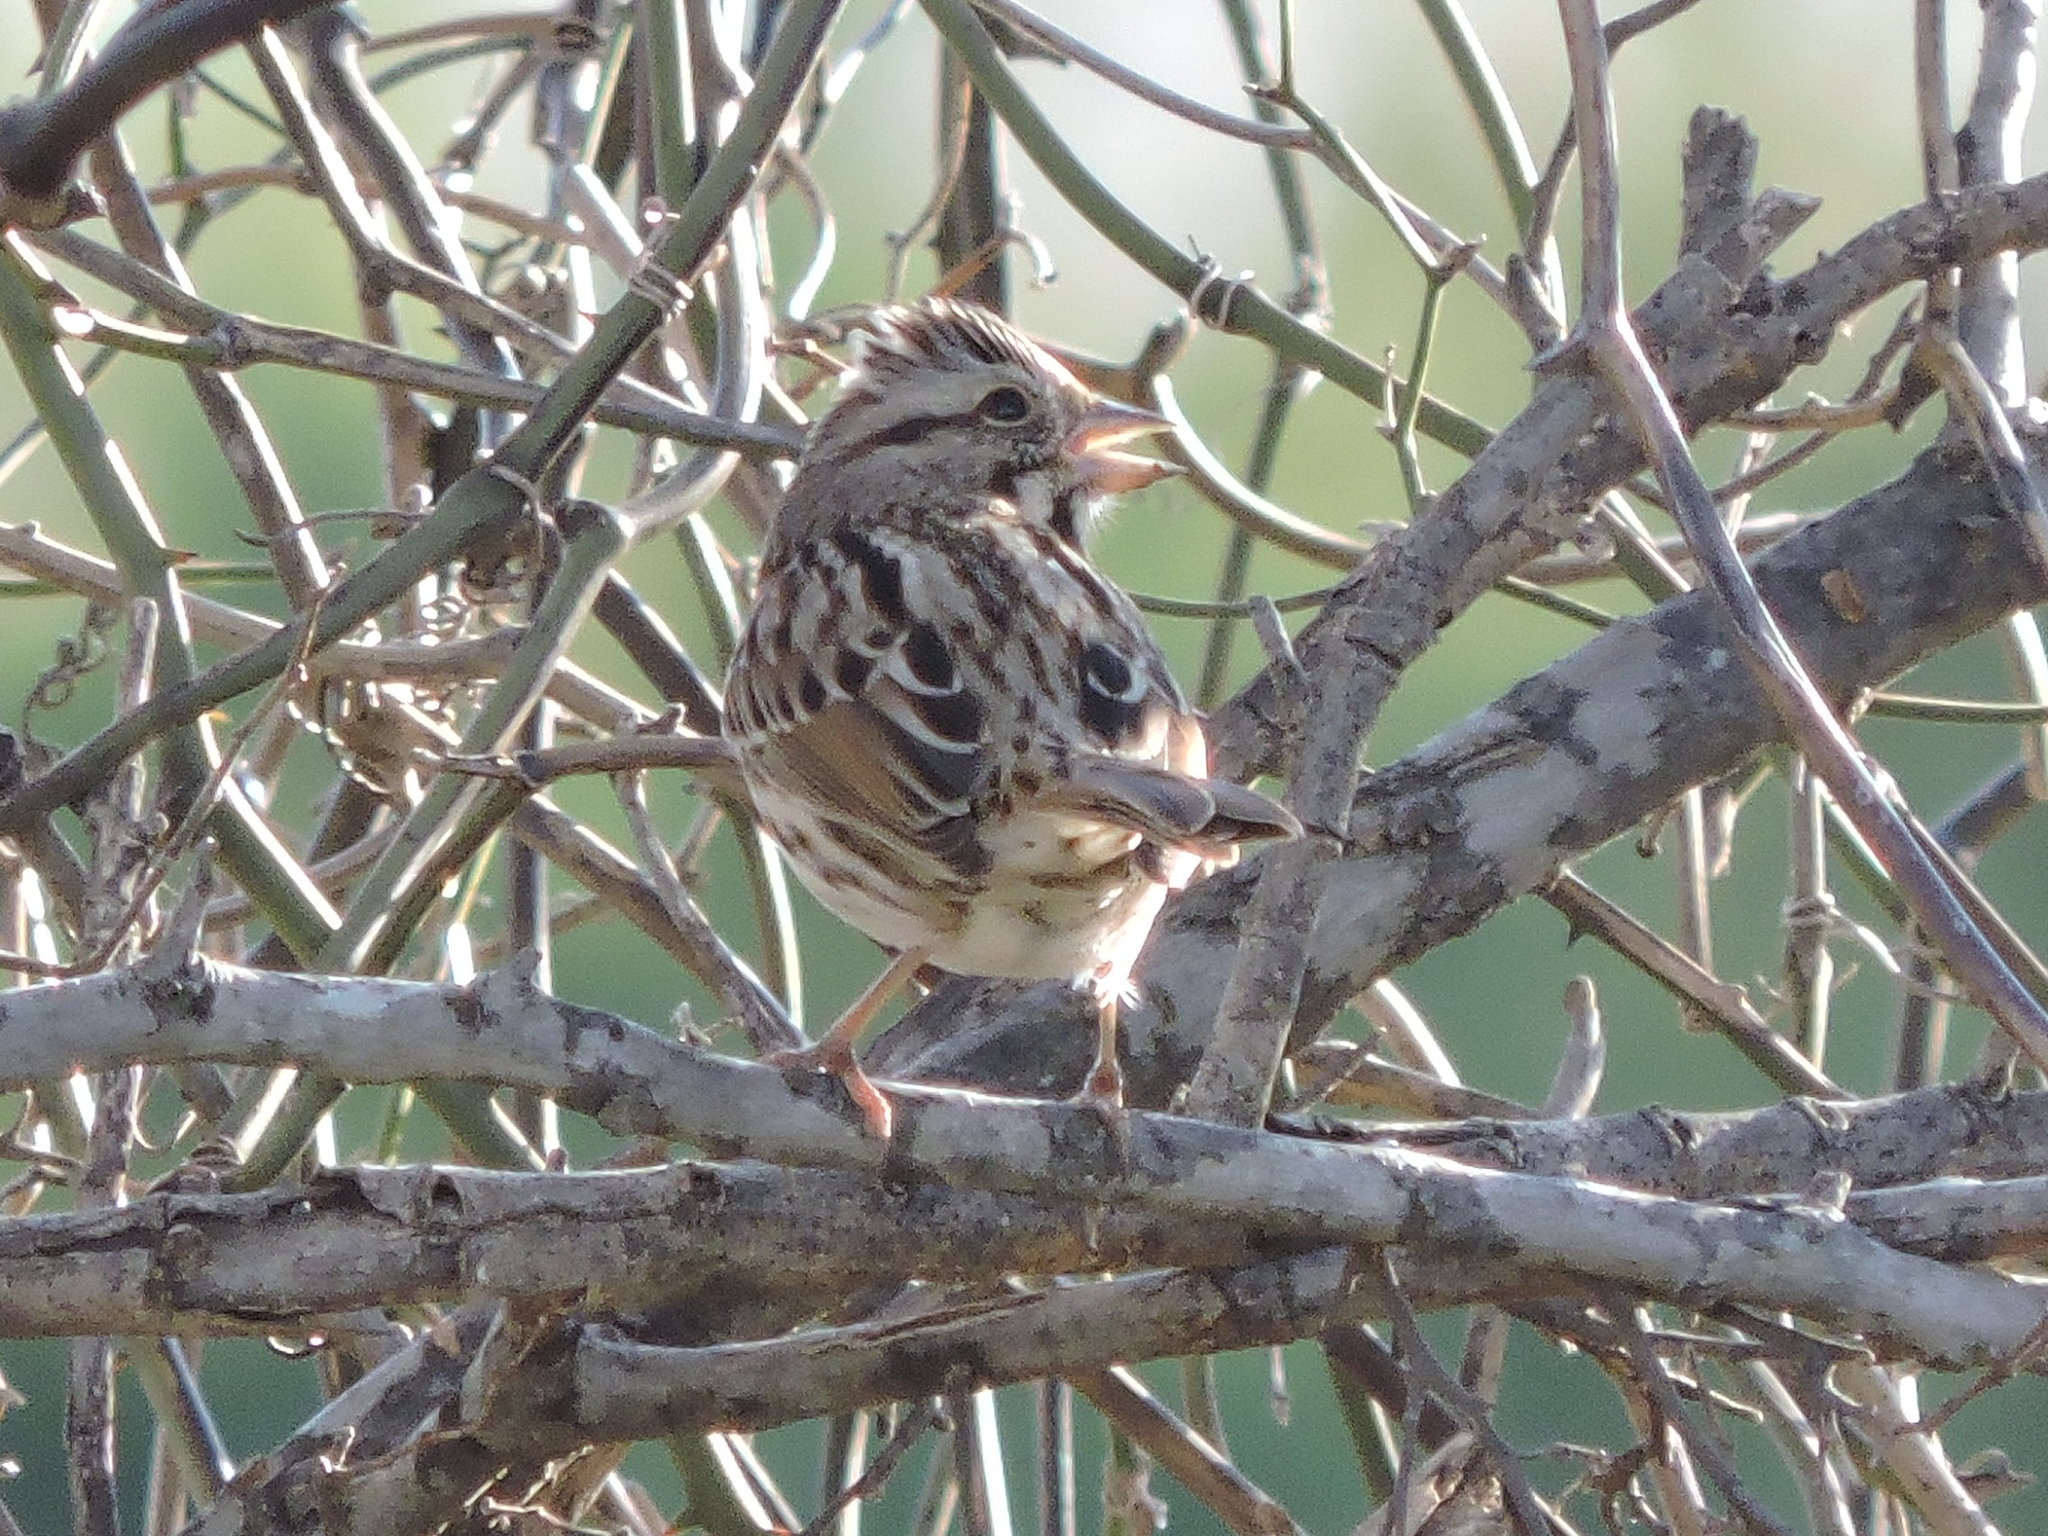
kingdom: Animalia
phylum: Chordata
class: Aves
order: Passeriformes
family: Passerellidae
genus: Melospiza
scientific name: Melospiza melodia
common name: Song sparrow
